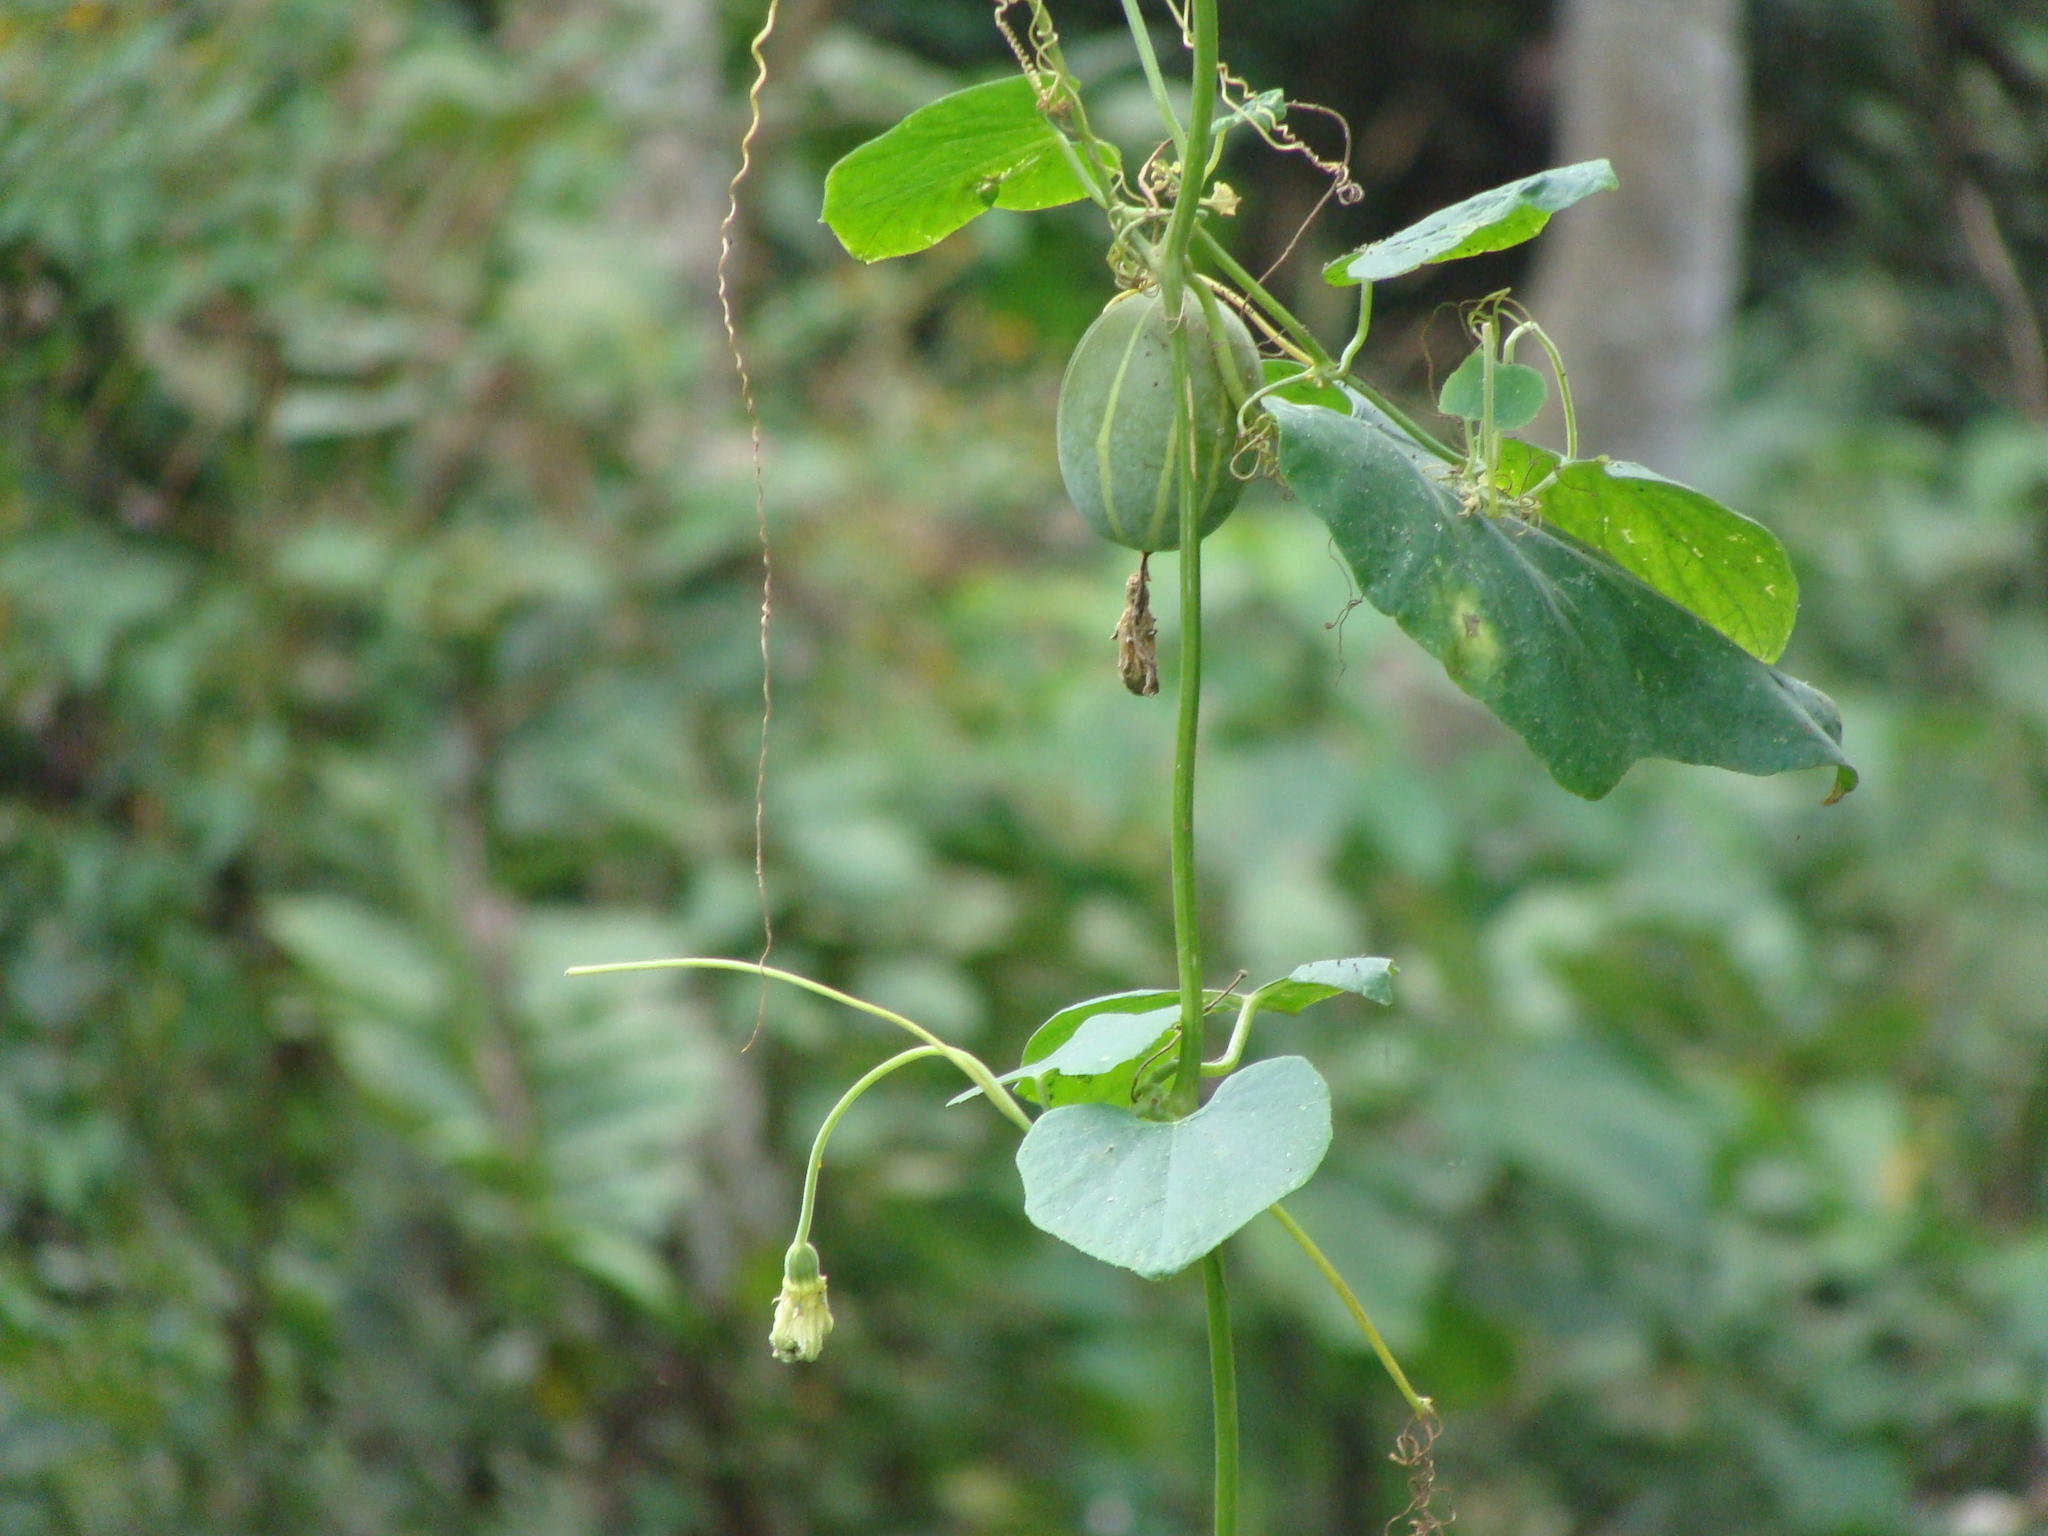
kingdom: Plantae
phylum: Tracheophyta
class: Magnoliopsida
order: Cucurbitales
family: Cucurbitaceae
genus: Polyclathra
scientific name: Polyclathra cucumerina
